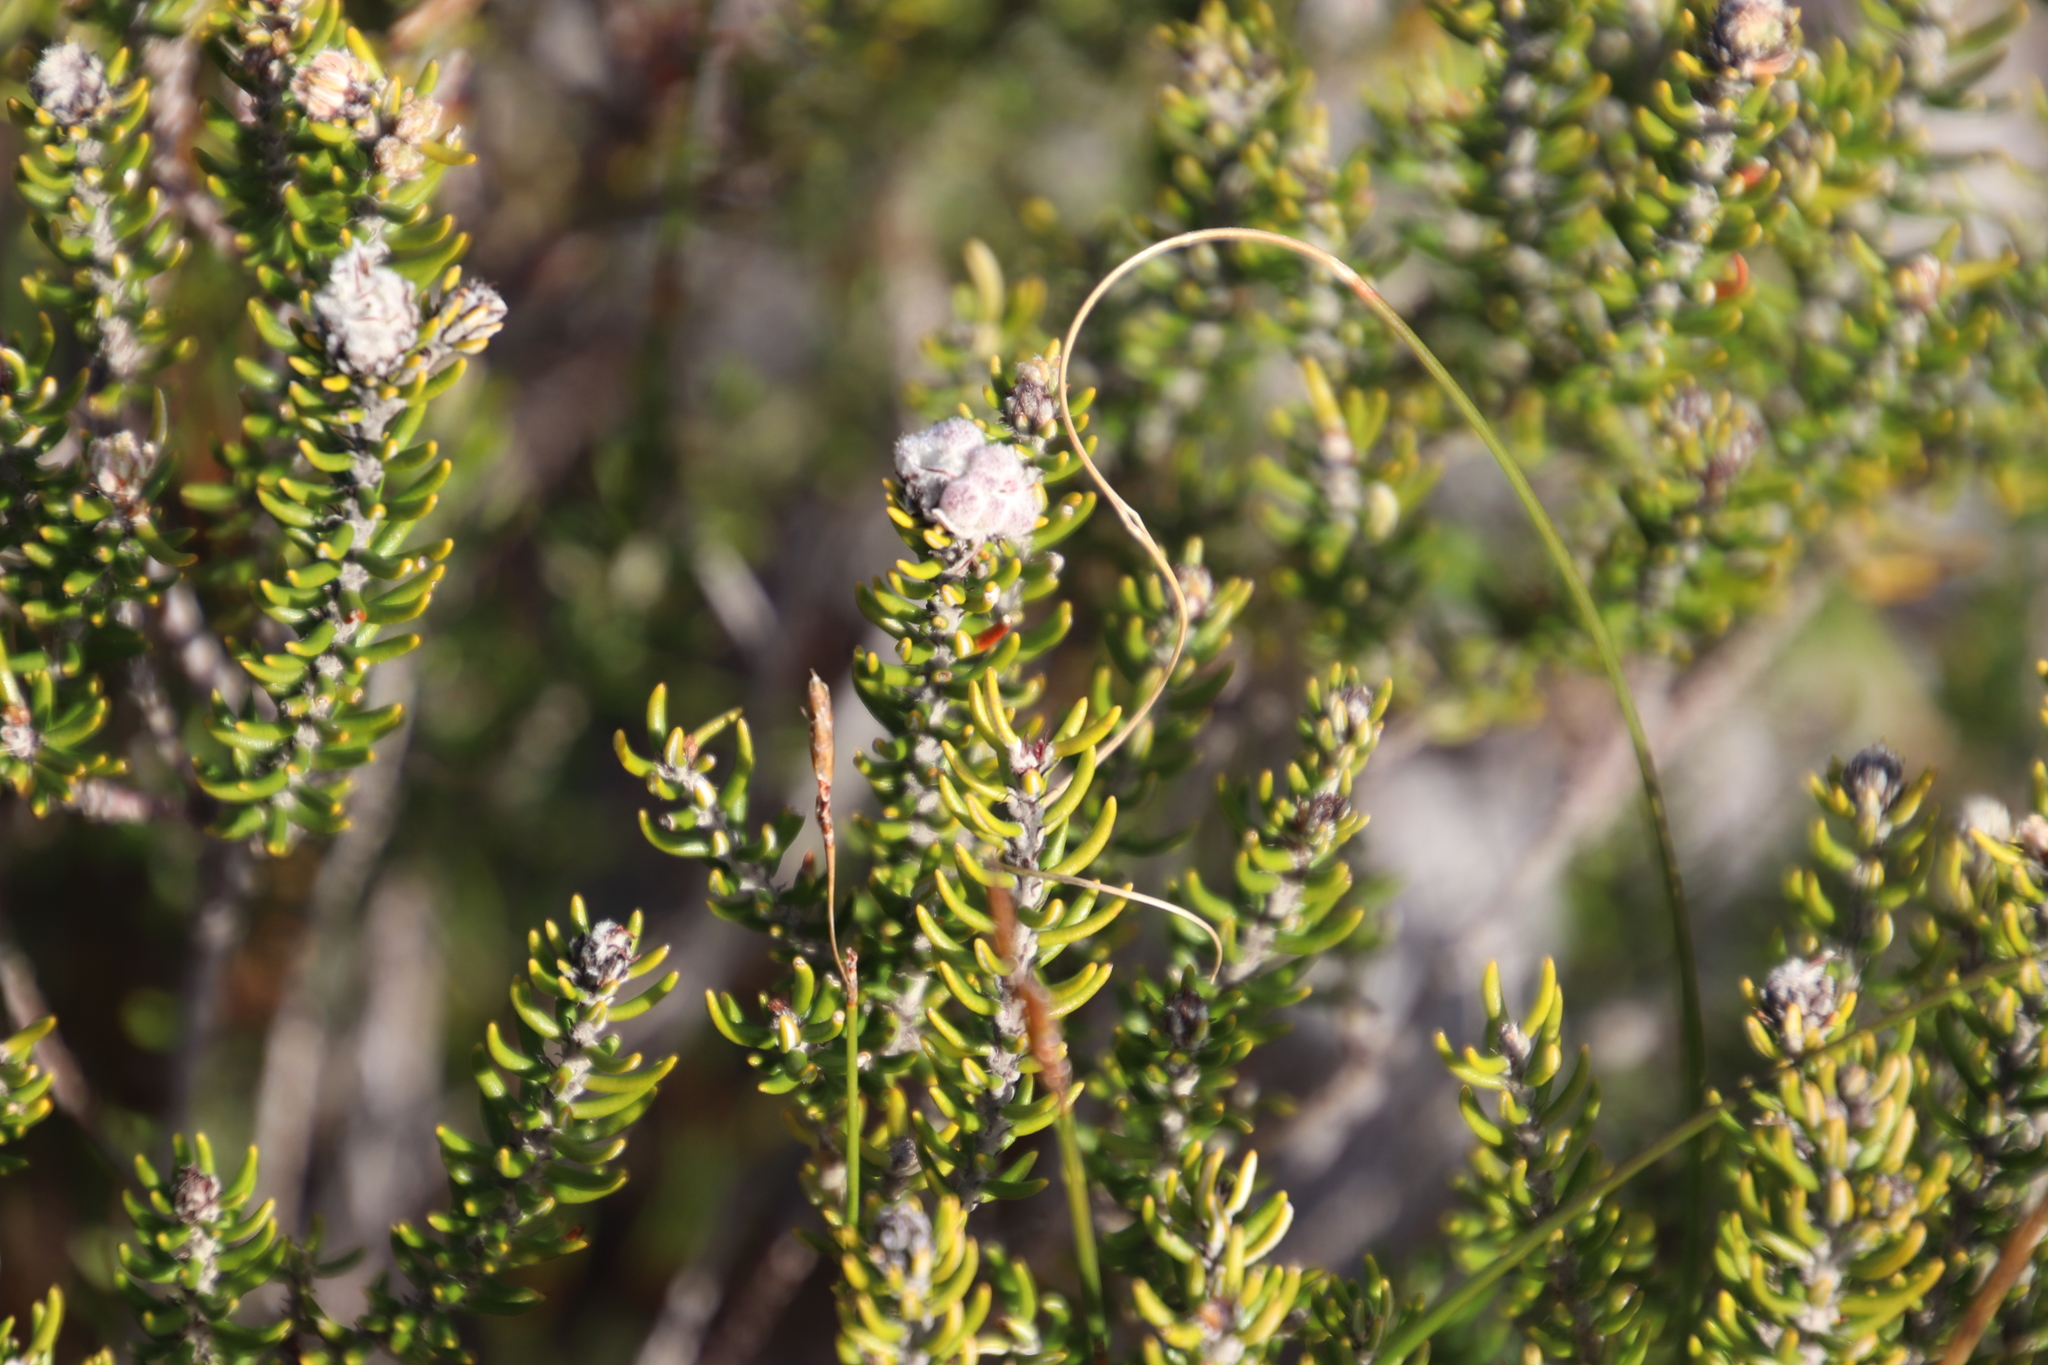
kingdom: Plantae
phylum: Tracheophyta
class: Magnoliopsida
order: Rosales
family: Rhamnaceae
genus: Trichocephalus
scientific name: Trichocephalus stipularis
